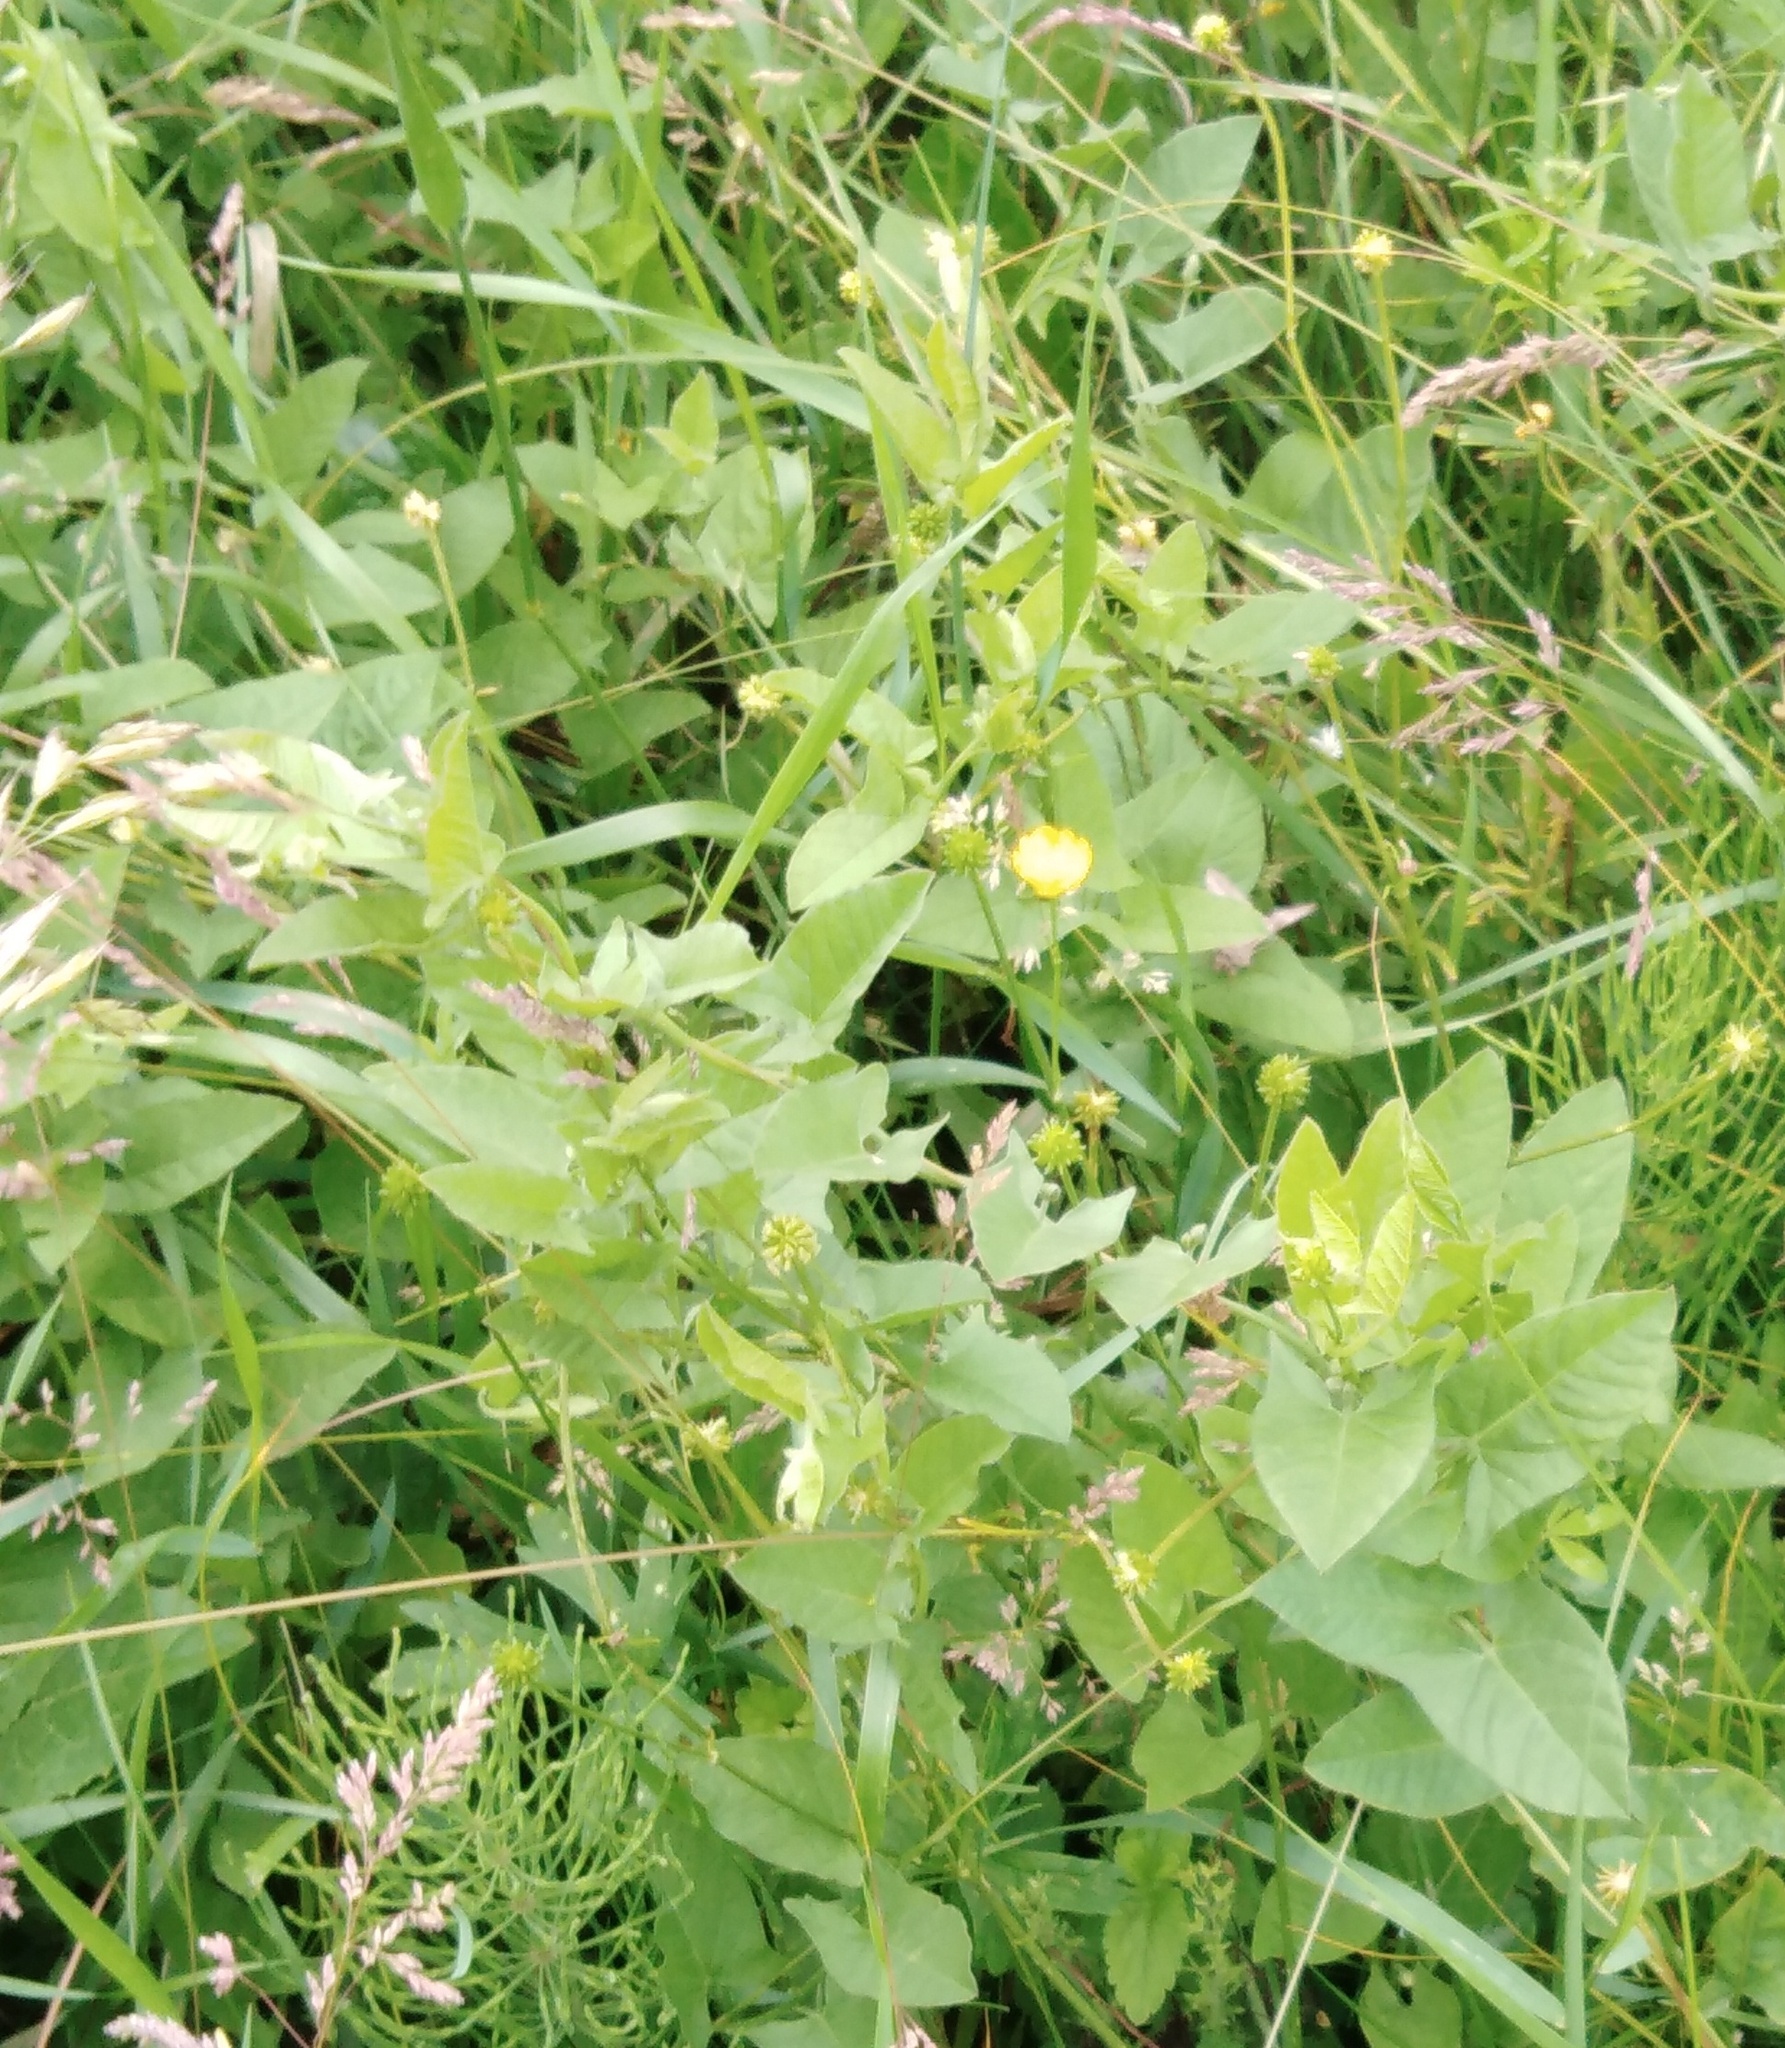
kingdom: Plantae
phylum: Tracheophyta
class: Magnoliopsida
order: Solanales
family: Convolvulaceae
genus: Convolvulus
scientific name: Convolvulus arvensis
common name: Field bindweed
